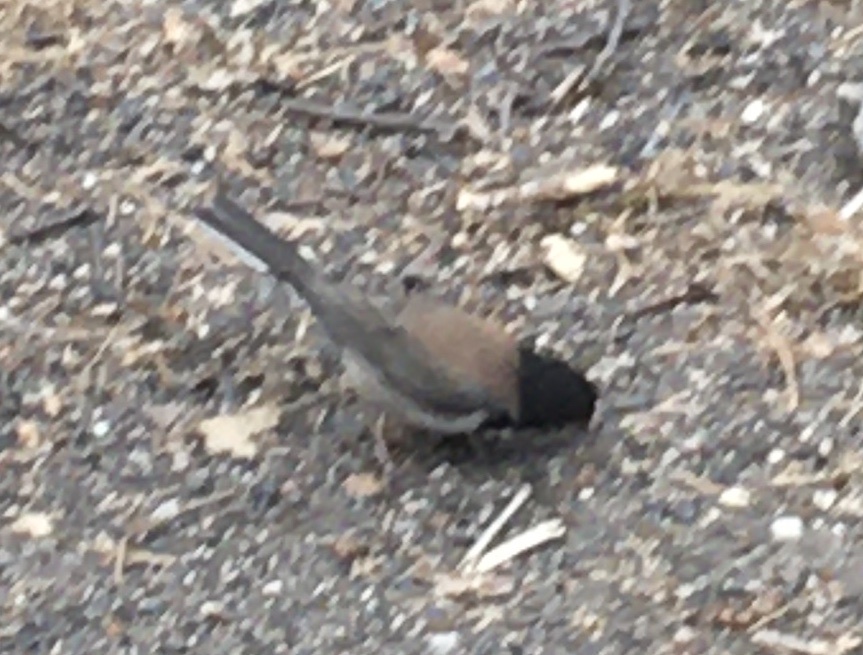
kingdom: Animalia
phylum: Chordata
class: Aves
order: Passeriformes
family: Passerellidae
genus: Junco
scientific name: Junco hyemalis
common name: Dark-eyed junco
